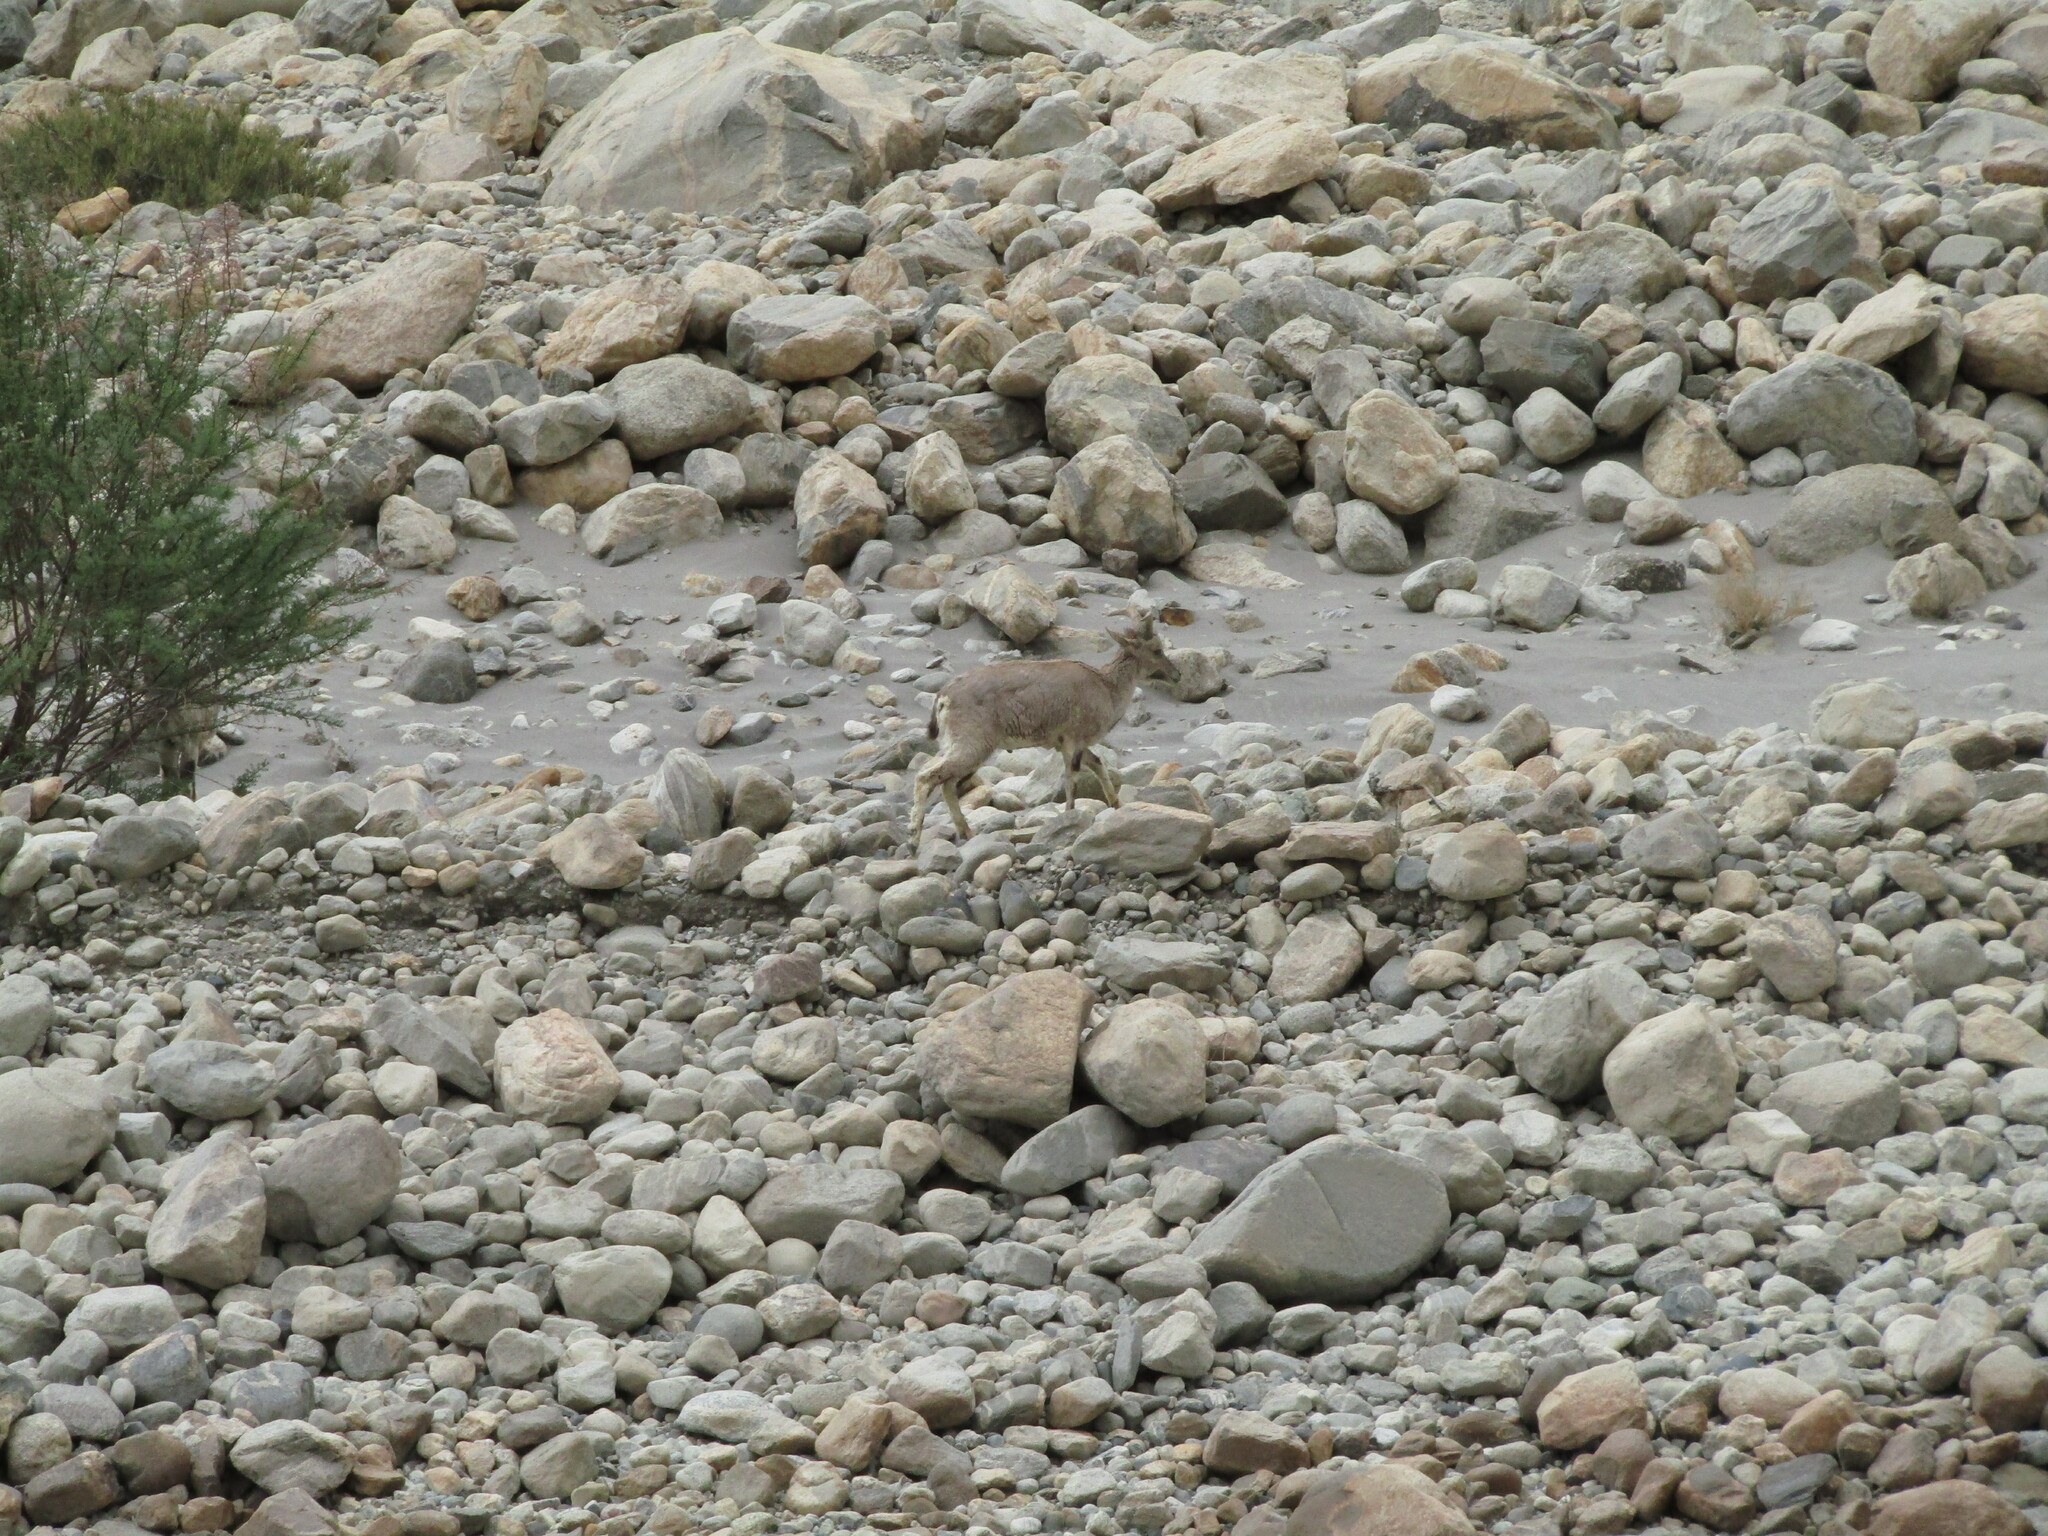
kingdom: Animalia
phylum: Chordata
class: Mammalia
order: Artiodactyla
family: Bovidae
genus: Pseudois
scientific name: Pseudois nayaur
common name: Bharal
